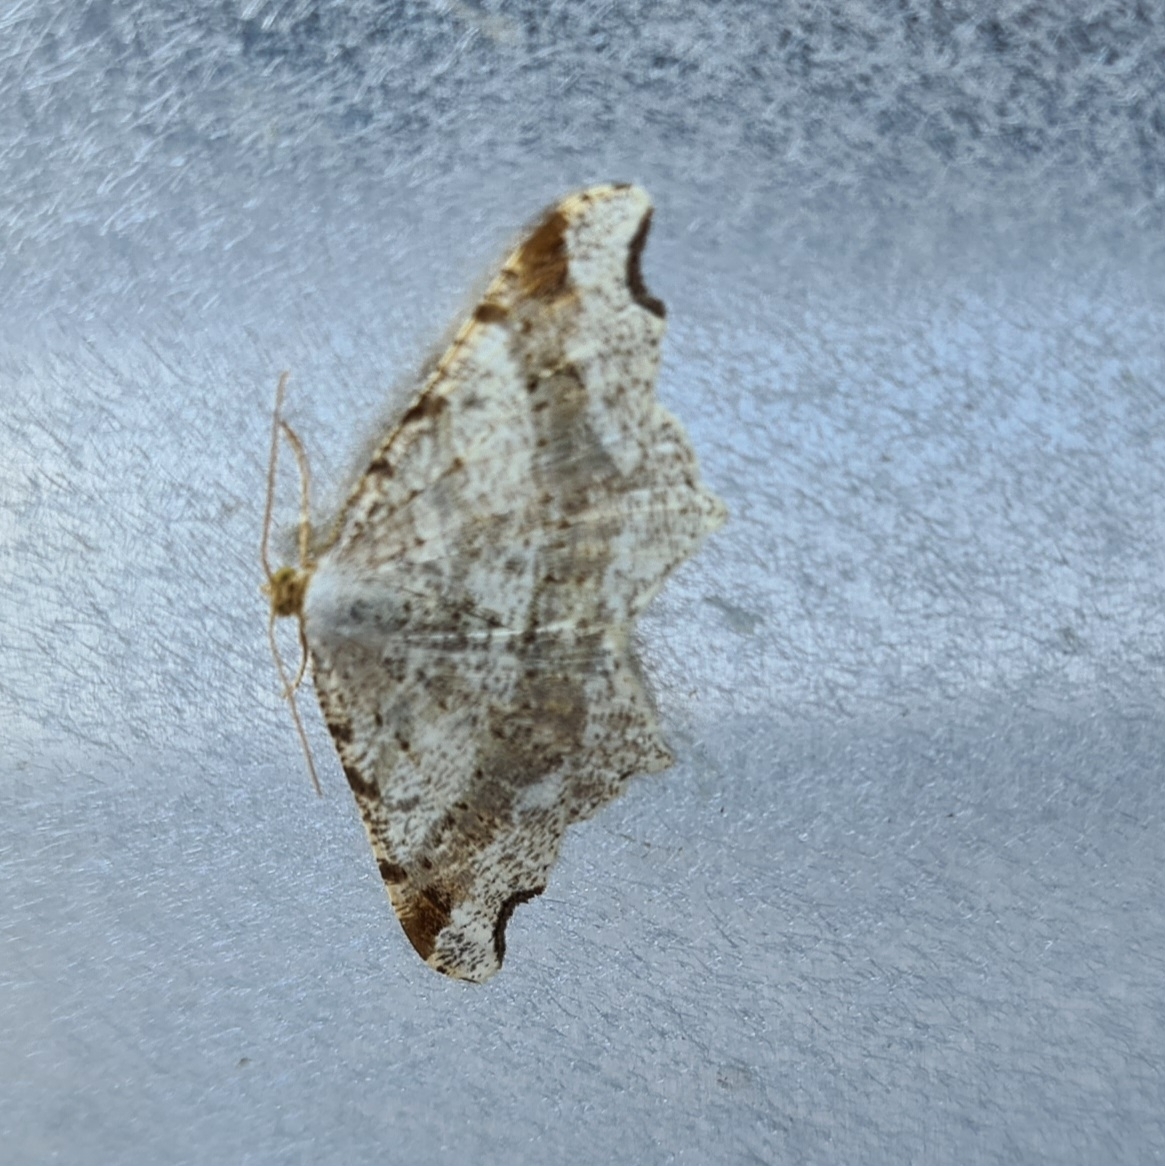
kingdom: Animalia
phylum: Arthropoda
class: Insecta
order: Lepidoptera
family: Geometridae
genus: Macaria
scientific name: Macaria alternata
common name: Sharp-angled peacock
